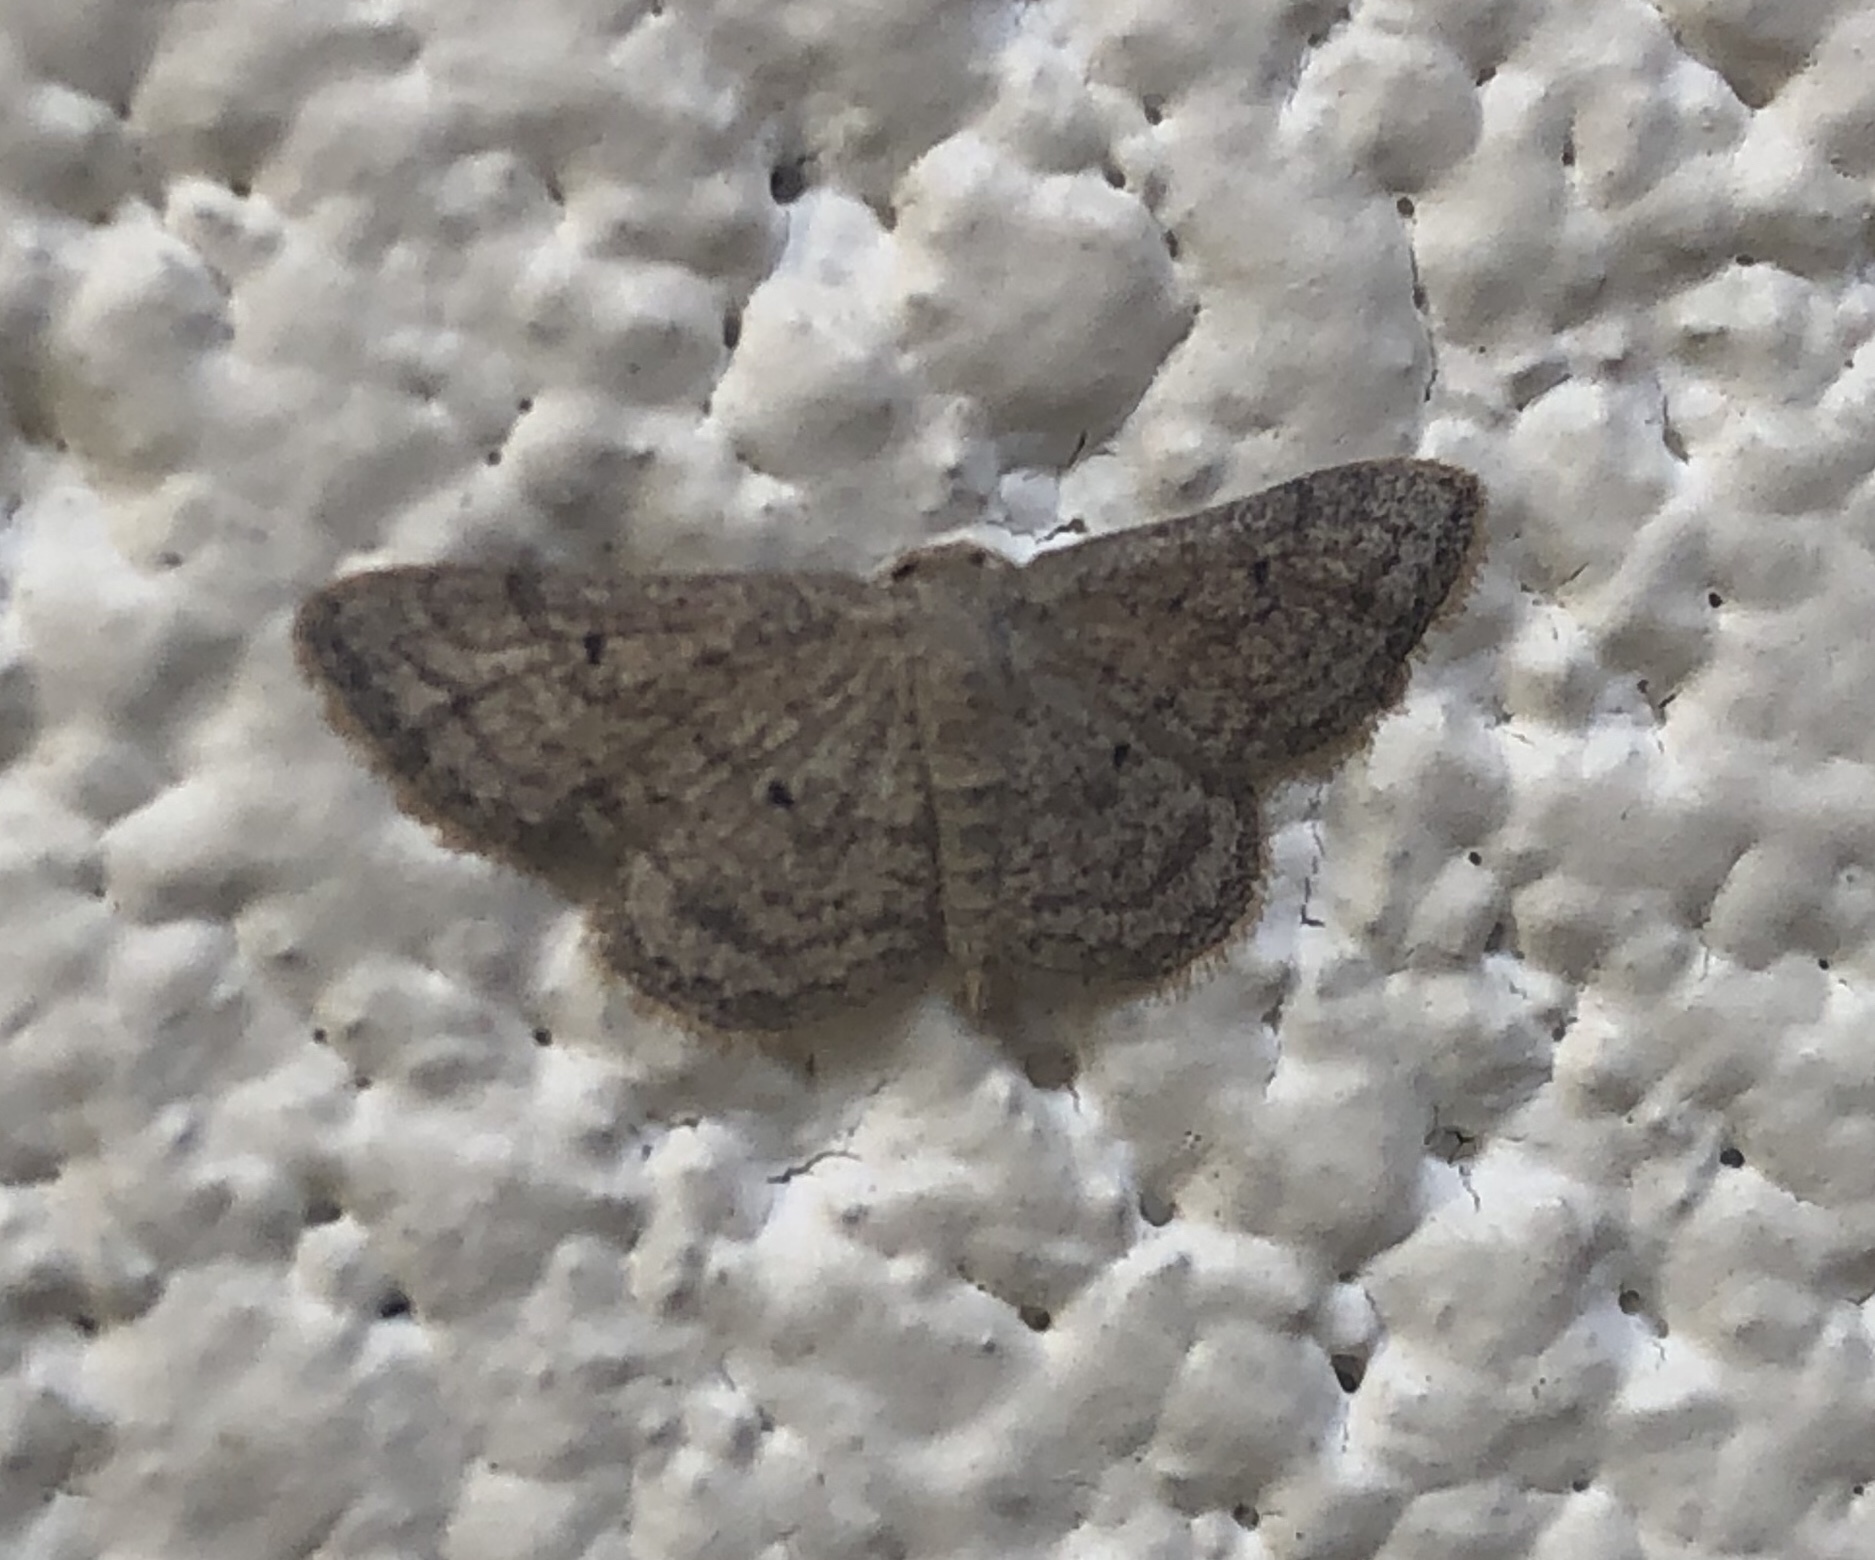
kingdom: Animalia
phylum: Arthropoda
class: Insecta
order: Lepidoptera
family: Geometridae
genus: Lobocleta
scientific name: Lobocleta ossularia
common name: Drab brown wave
